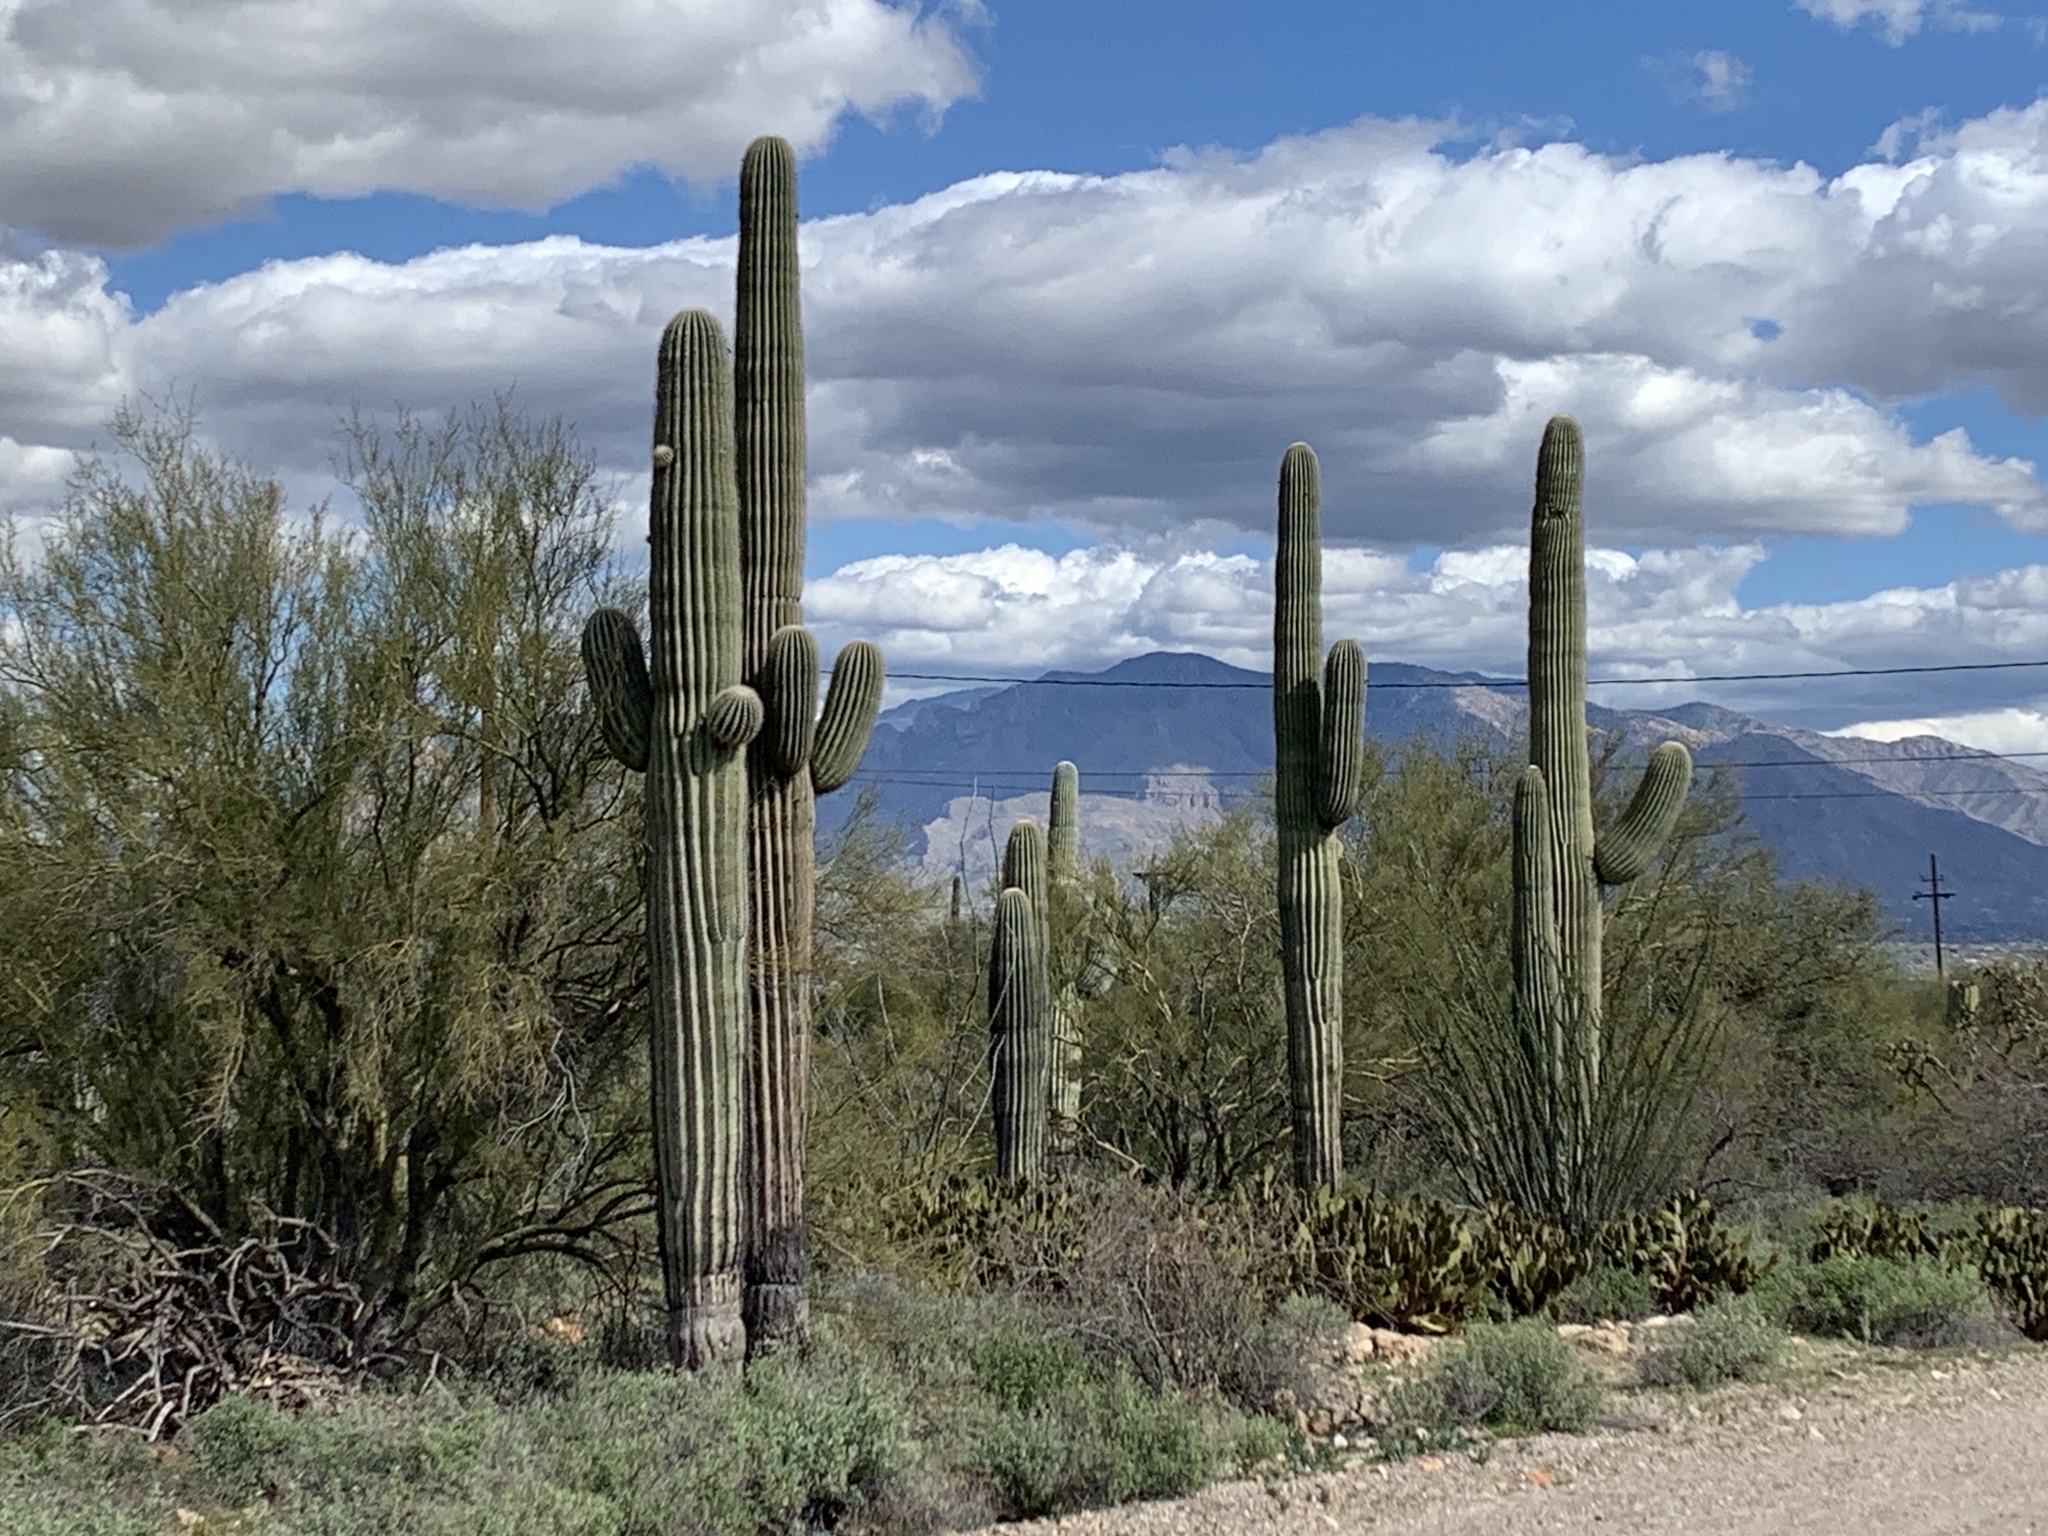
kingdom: Plantae
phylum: Tracheophyta
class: Magnoliopsida
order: Caryophyllales
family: Cactaceae
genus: Carnegiea
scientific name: Carnegiea gigantea
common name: Saguaro
